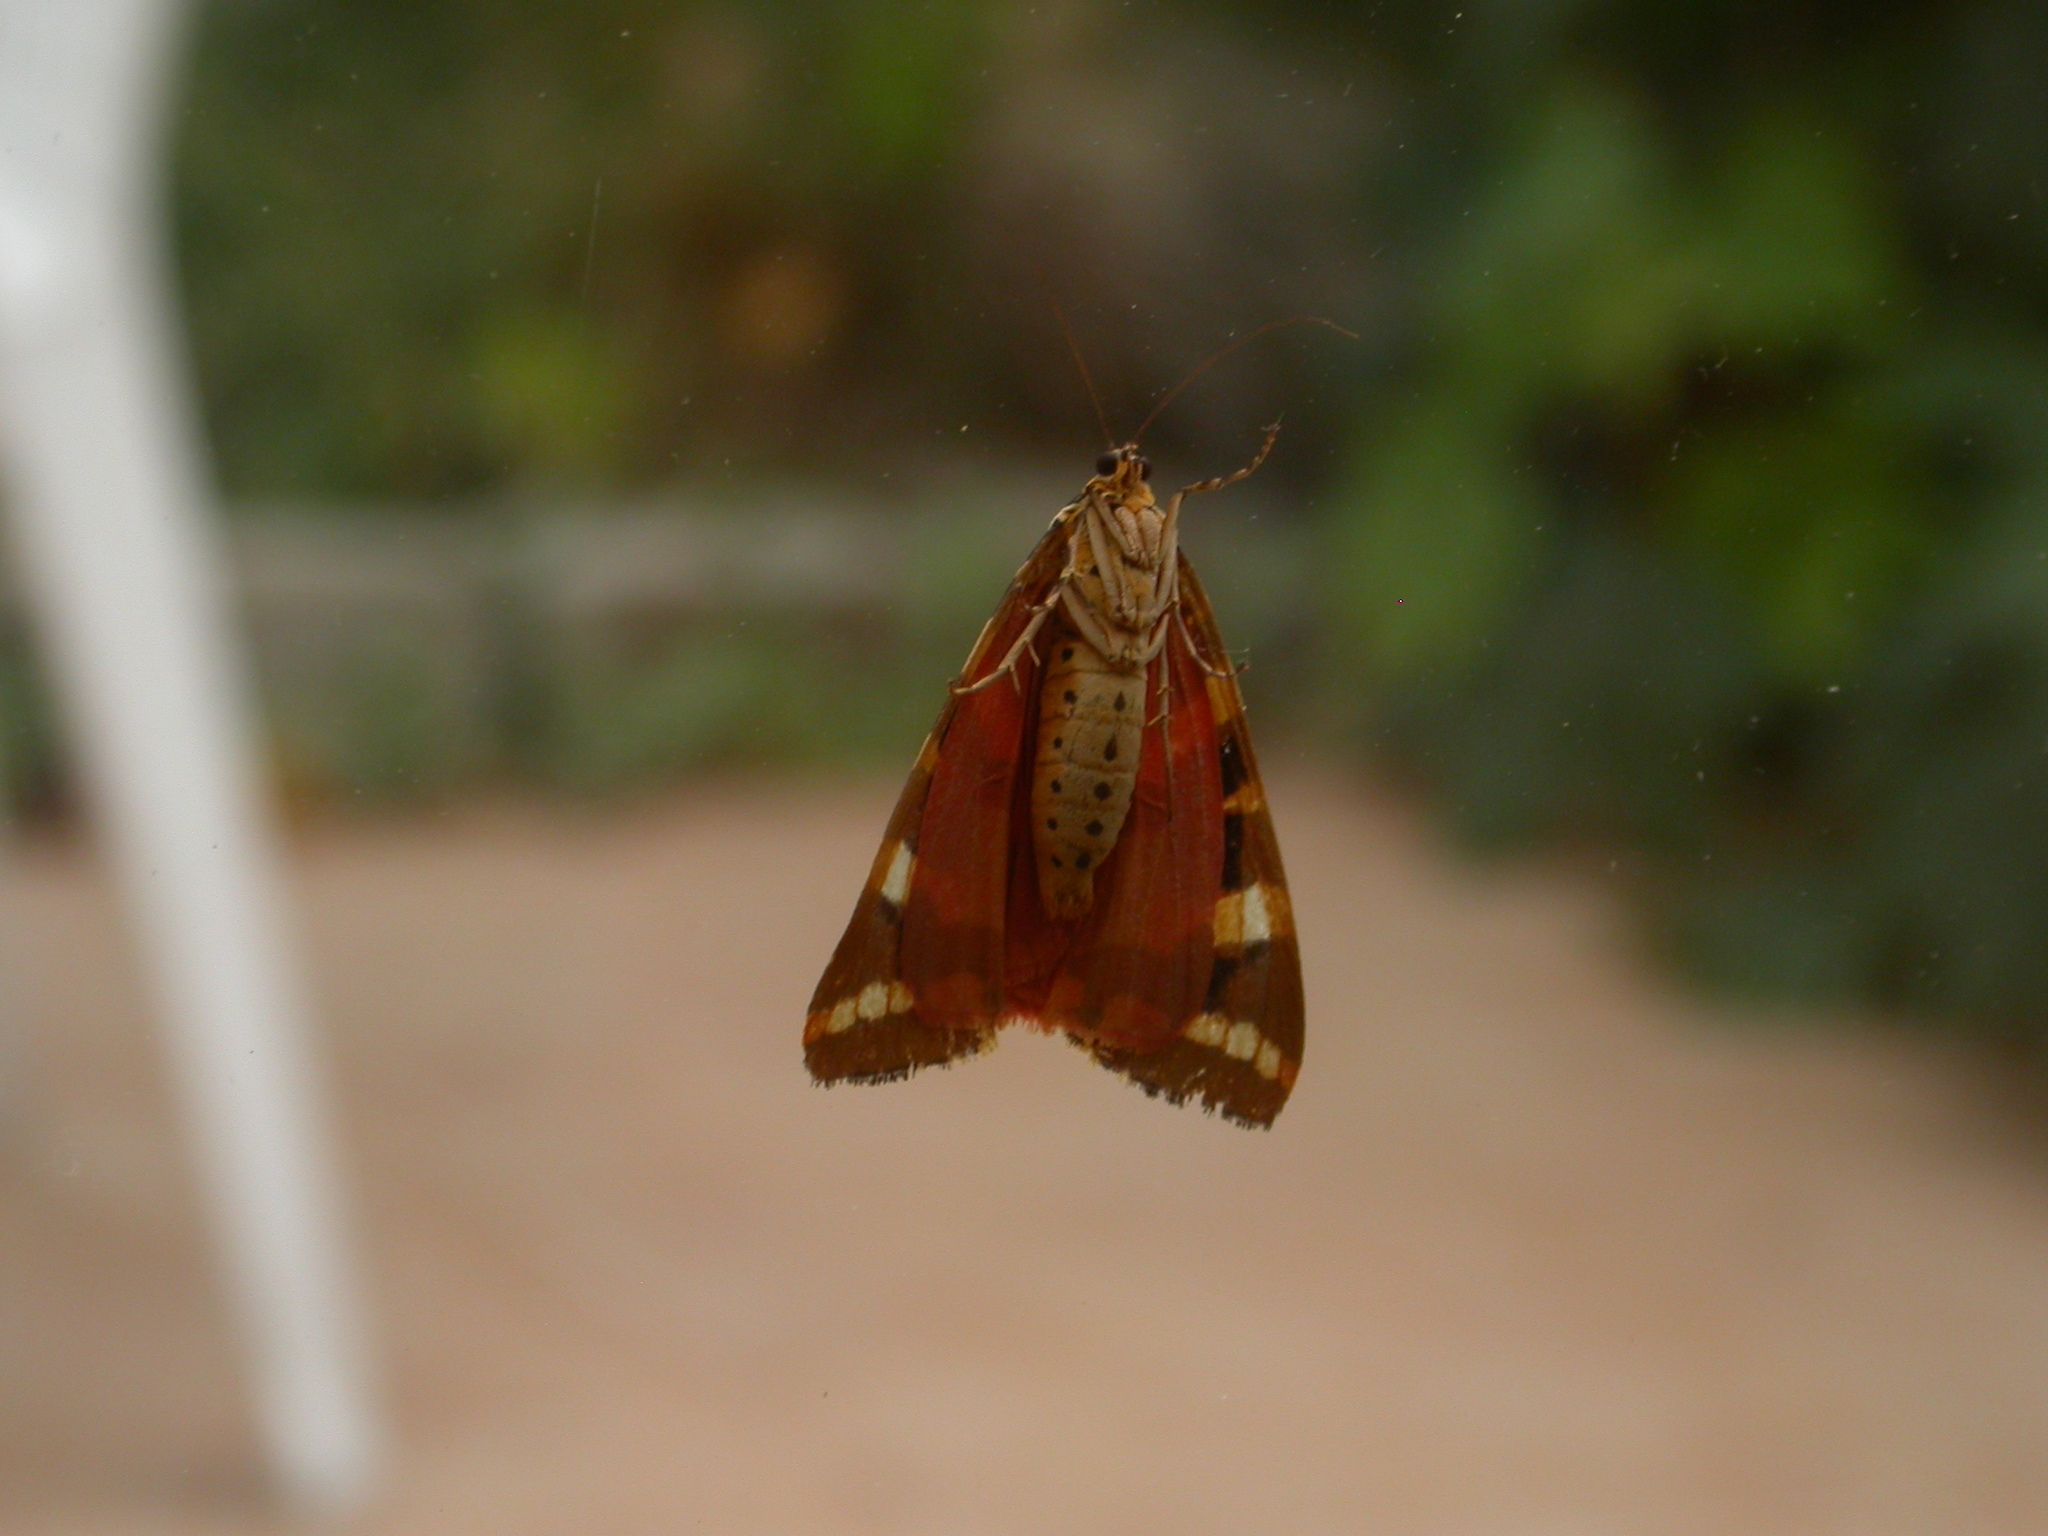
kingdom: Animalia
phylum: Arthropoda
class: Insecta
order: Lepidoptera
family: Erebidae
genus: Euplagia
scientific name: Euplagia quadripunctaria
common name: Jersey tiger
